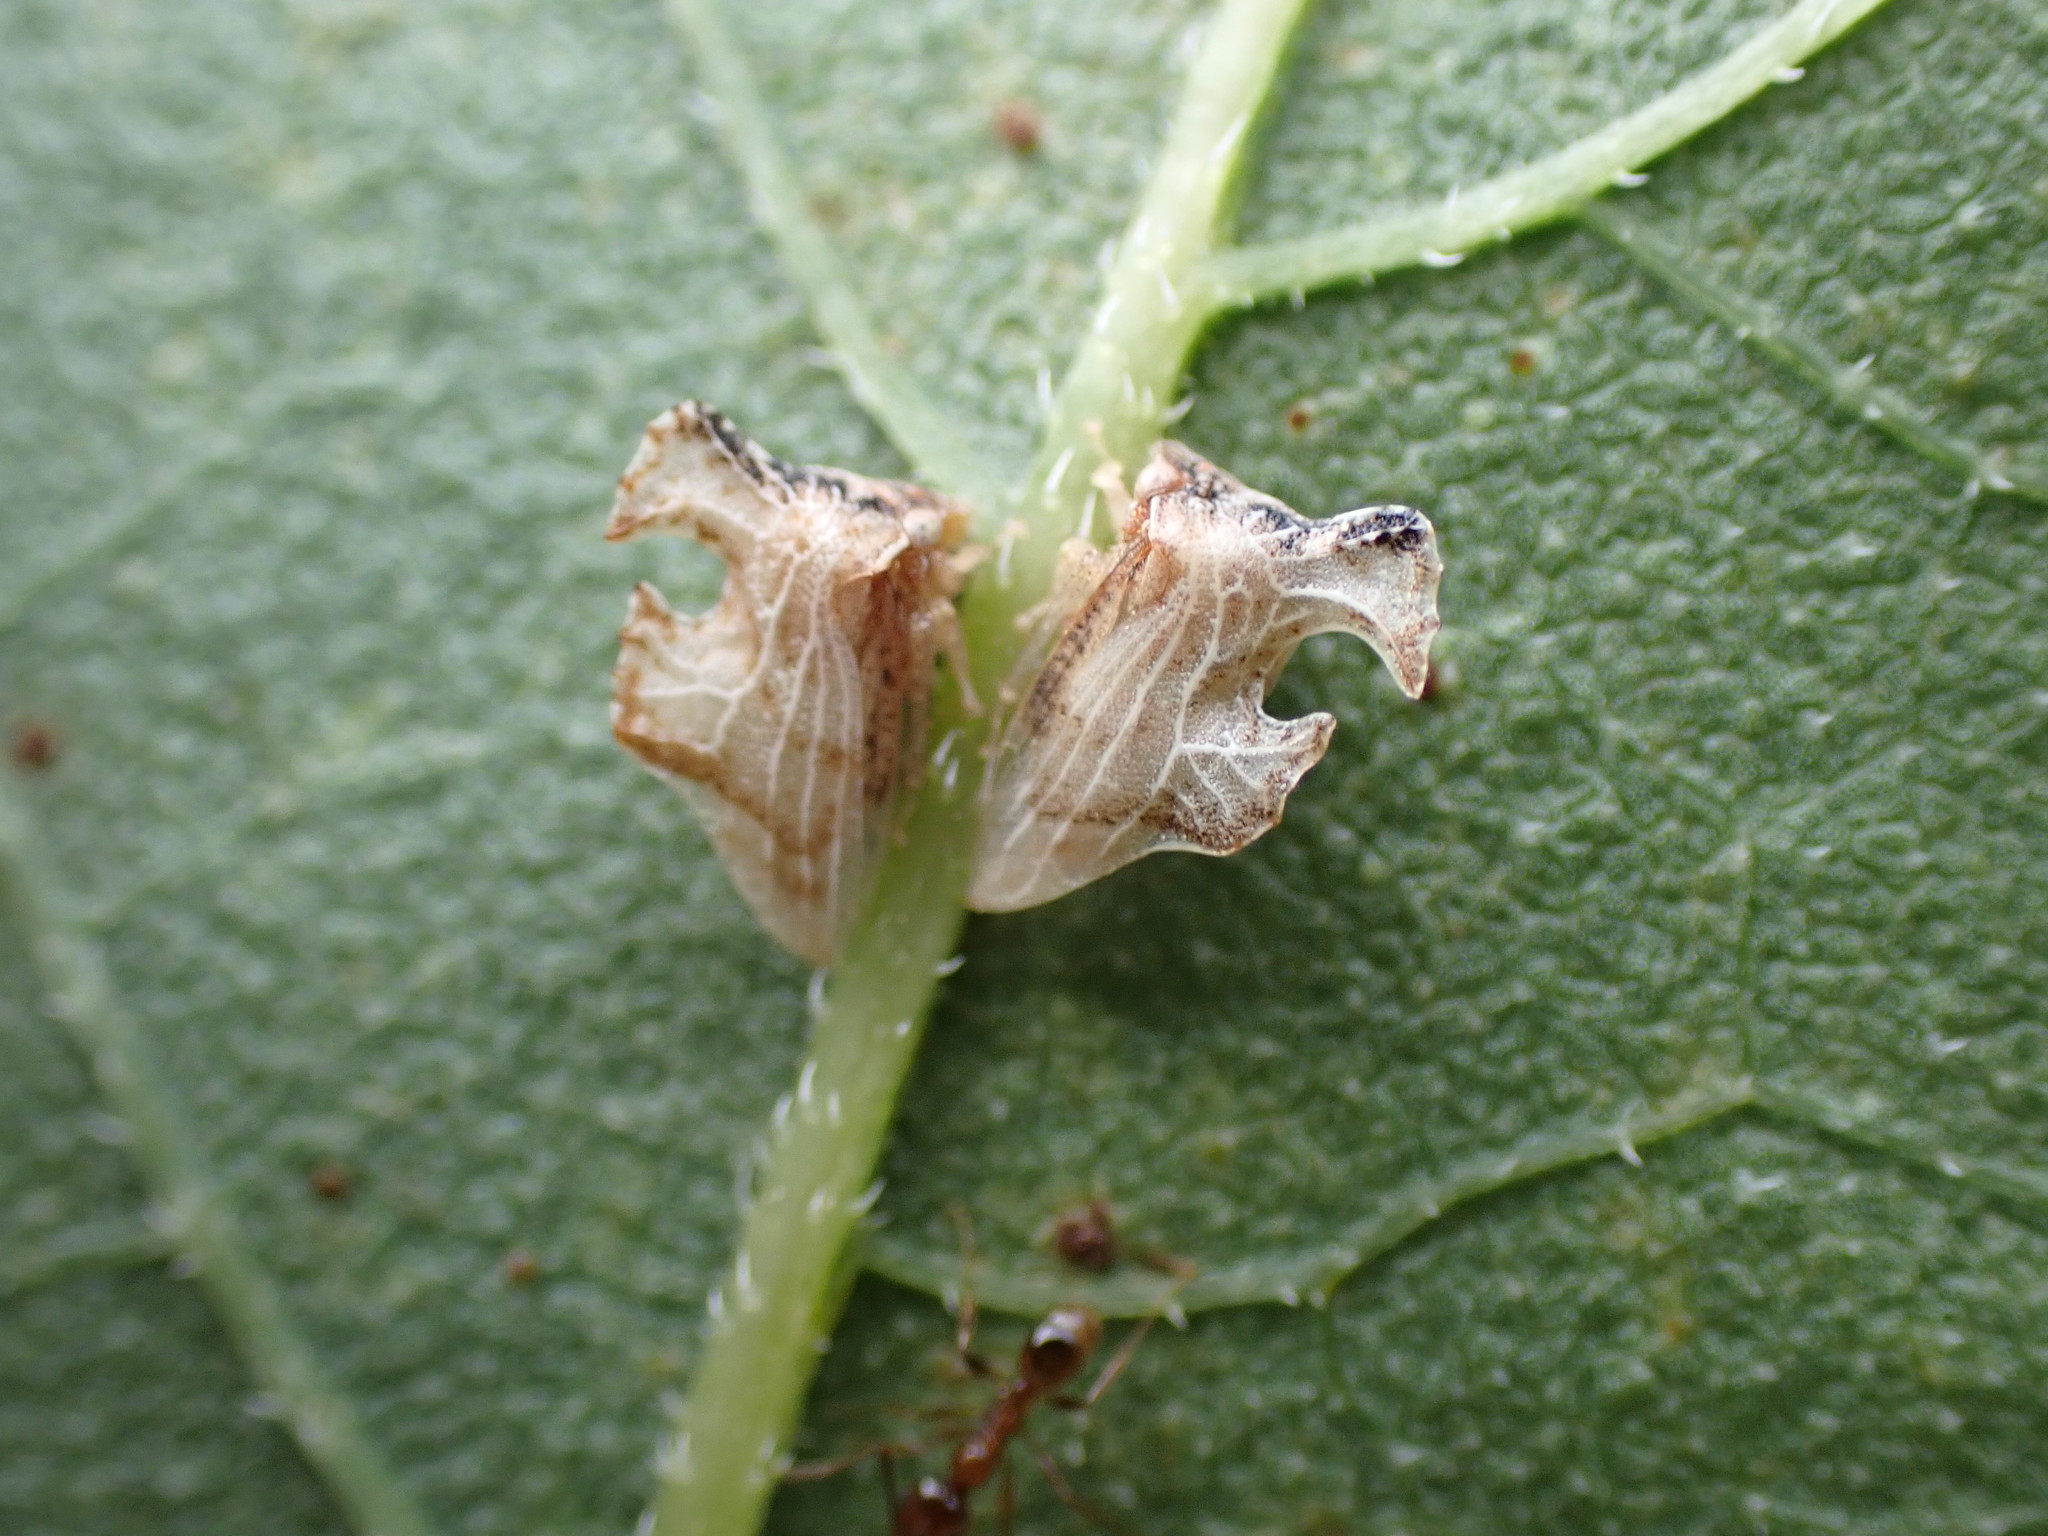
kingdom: Animalia
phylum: Arthropoda
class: Insecta
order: Hemiptera
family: Membracidae
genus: Entylia
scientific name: Entylia carinata
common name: Keeled treehopper
